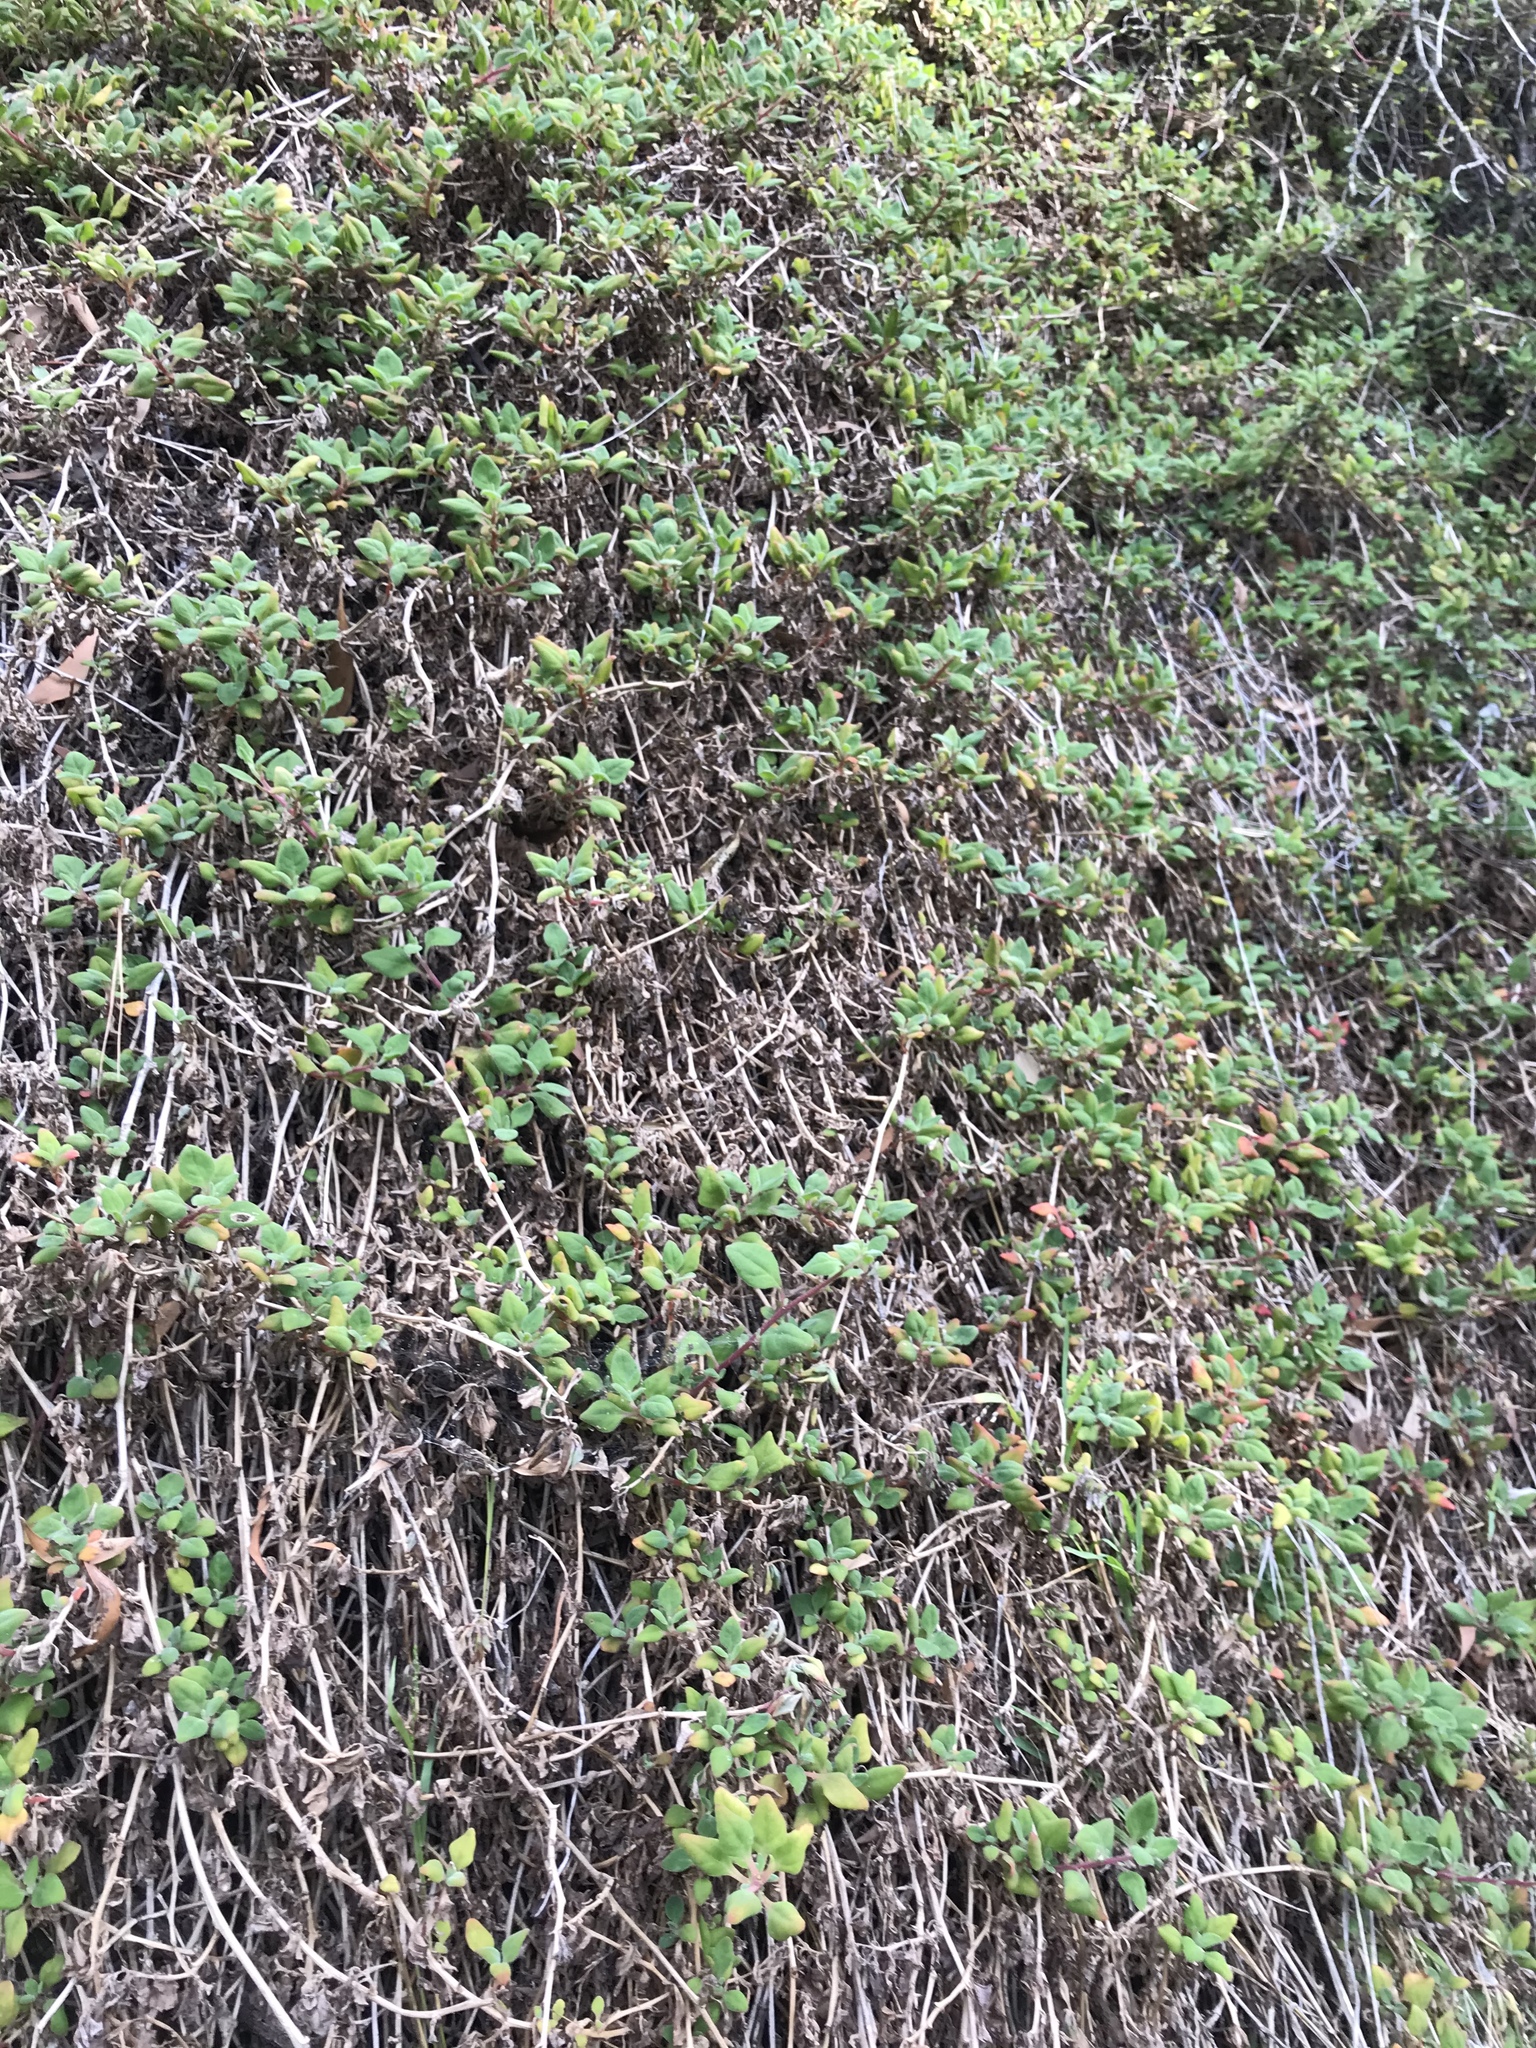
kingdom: Plantae
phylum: Tracheophyta
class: Magnoliopsida
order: Caryophyllales
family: Aizoaceae
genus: Tetragonia
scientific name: Tetragonia implexicoma
